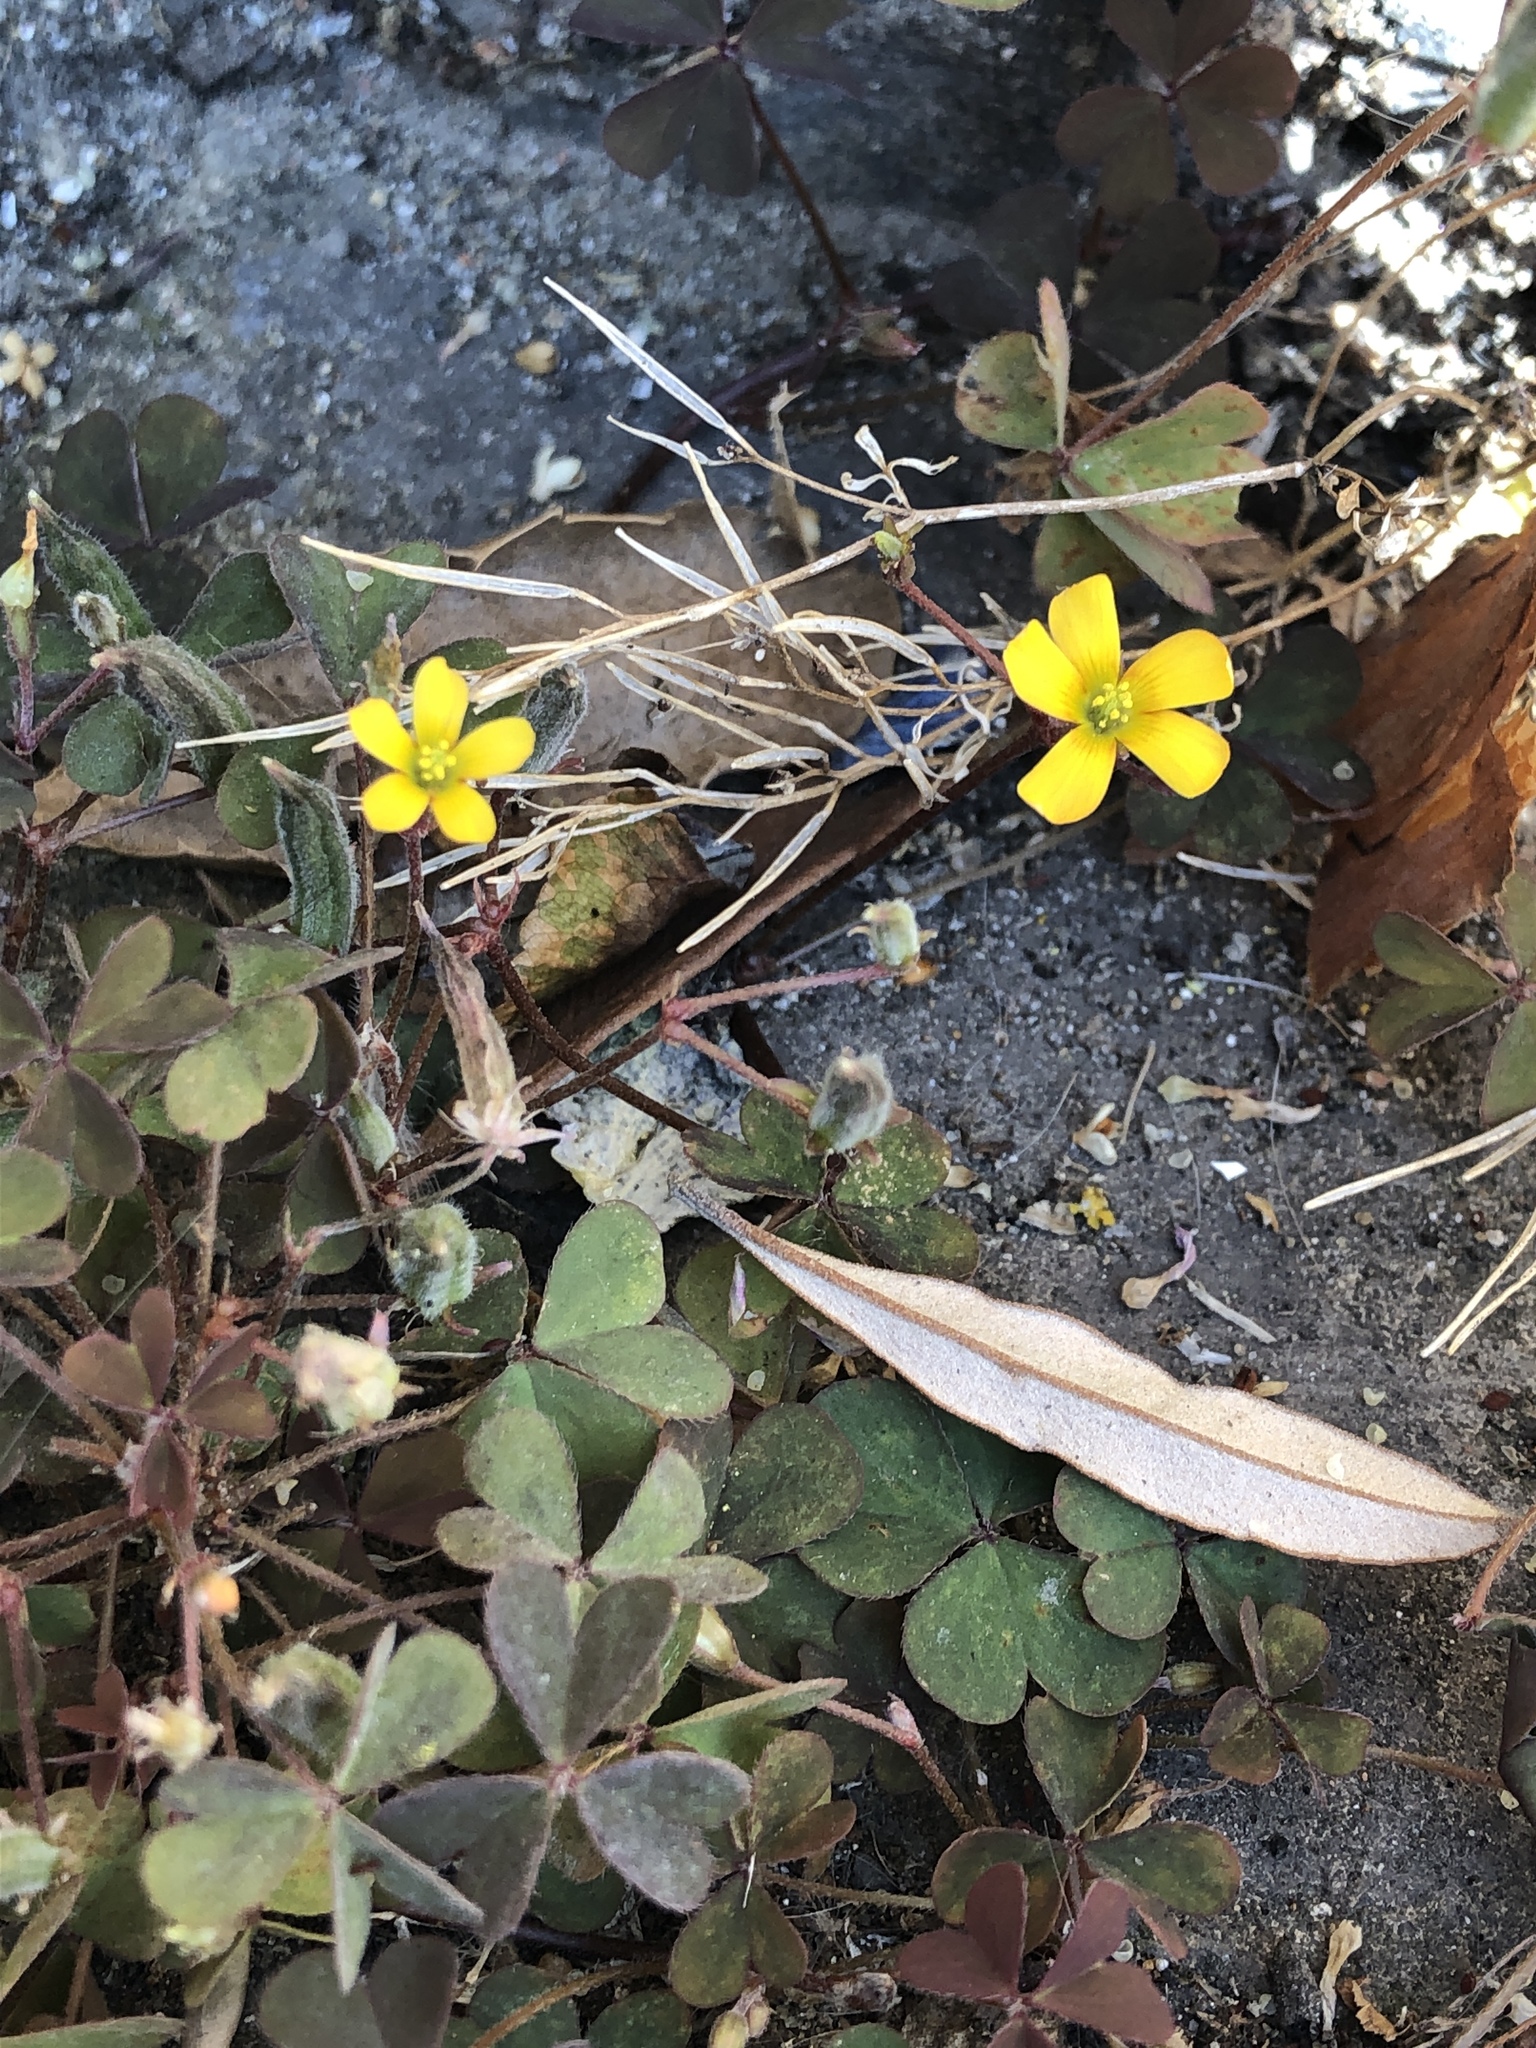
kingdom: Plantae
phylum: Tracheophyta
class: Magnoliopsida
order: Oxalidales
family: Oxalidaceae
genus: Oxalis
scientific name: Oxalis corniculata
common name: Procumbent yellow-sorrel
